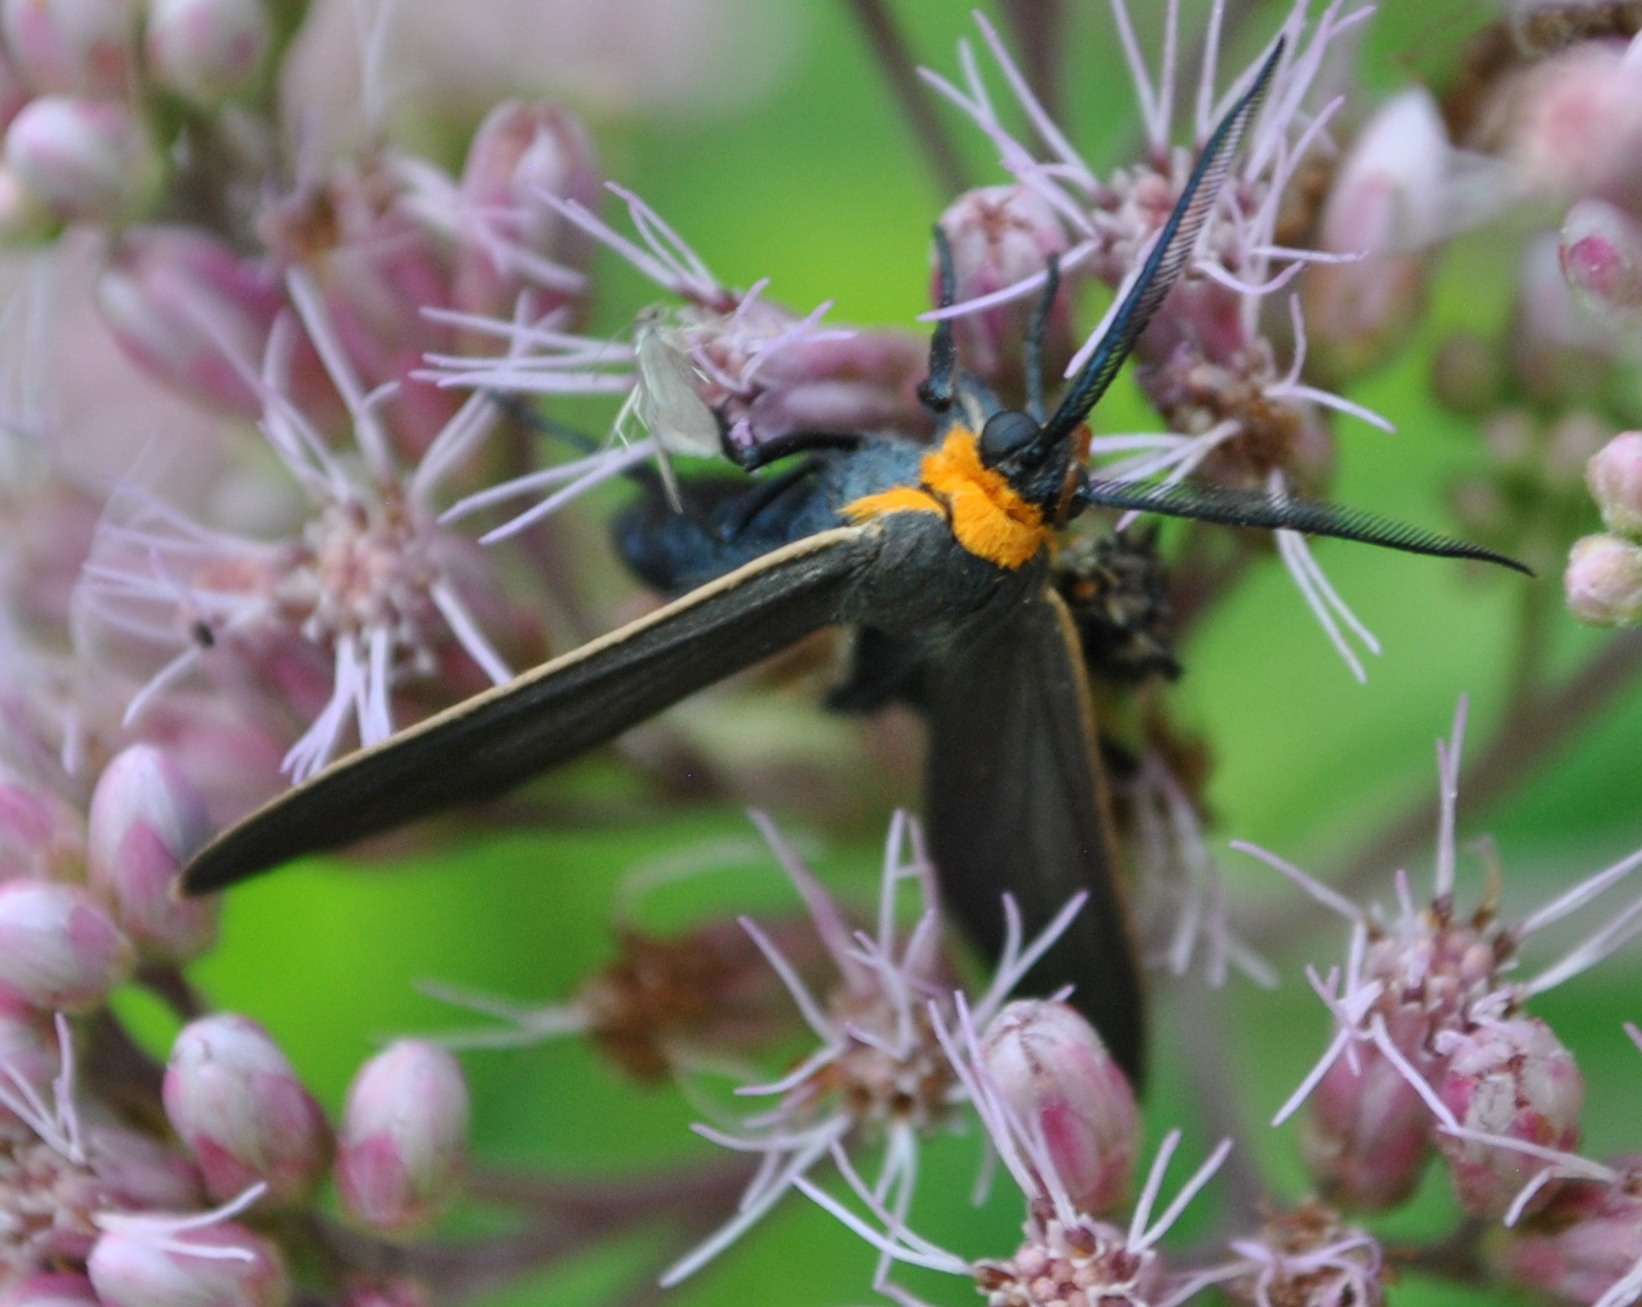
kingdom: Animalia
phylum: Arthropoda
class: Insecta
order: Lepidoptera
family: Erebidae
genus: Cisseps
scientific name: Cisseps fulvicollis
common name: Yellow-collared scape moth
